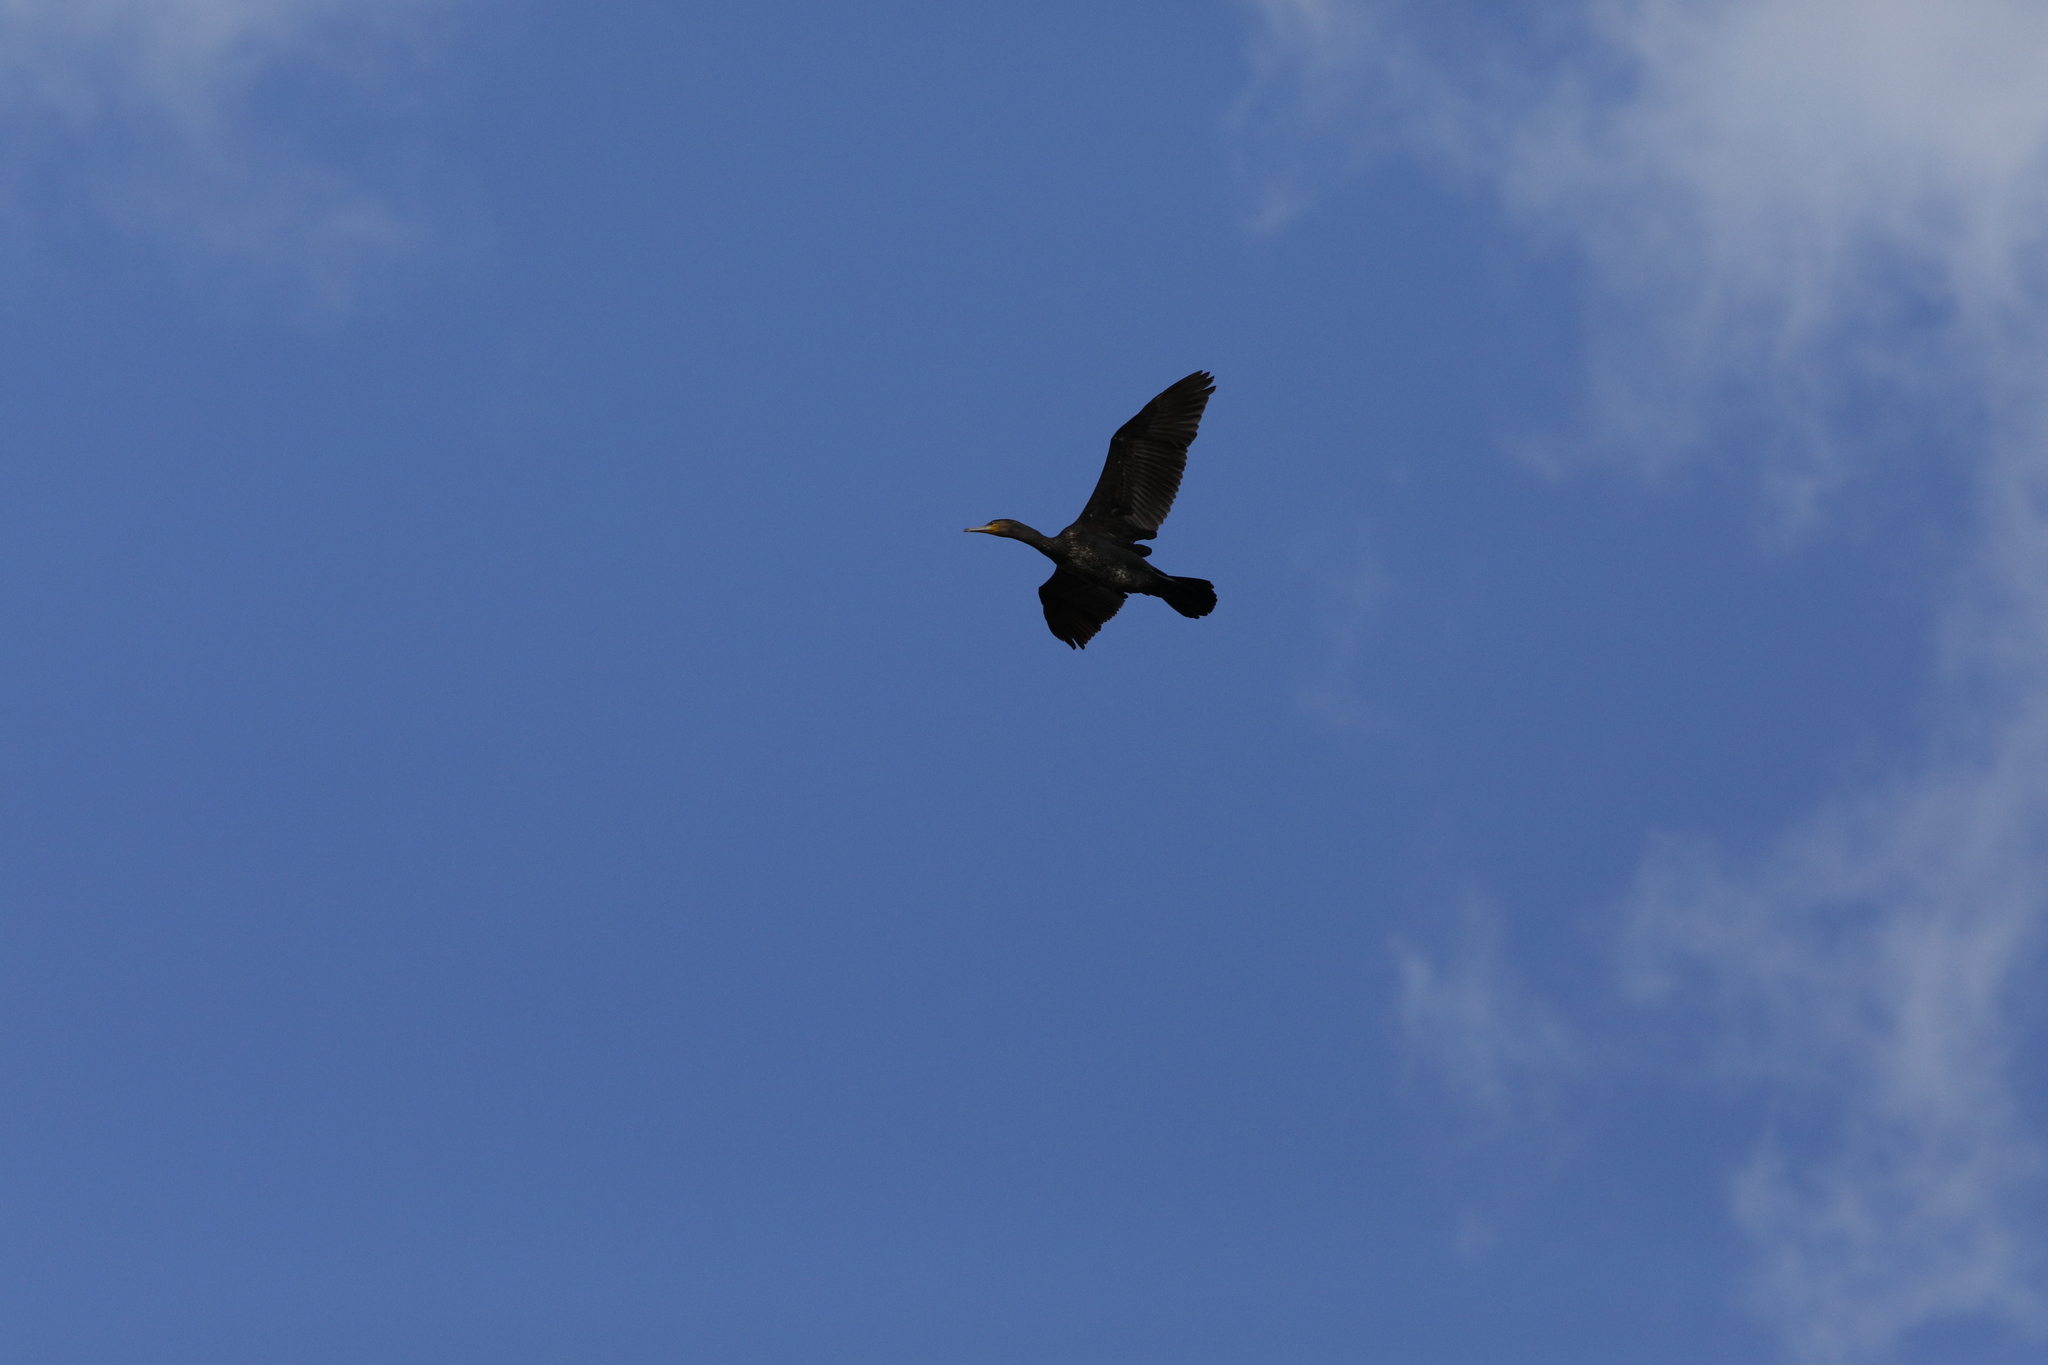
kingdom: Animalia
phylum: Chordata
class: Aves
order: Suliformes
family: Phalacrocoracidae
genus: Phalacrocorax
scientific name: Phalacrocorax carbo
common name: Great cormorant
